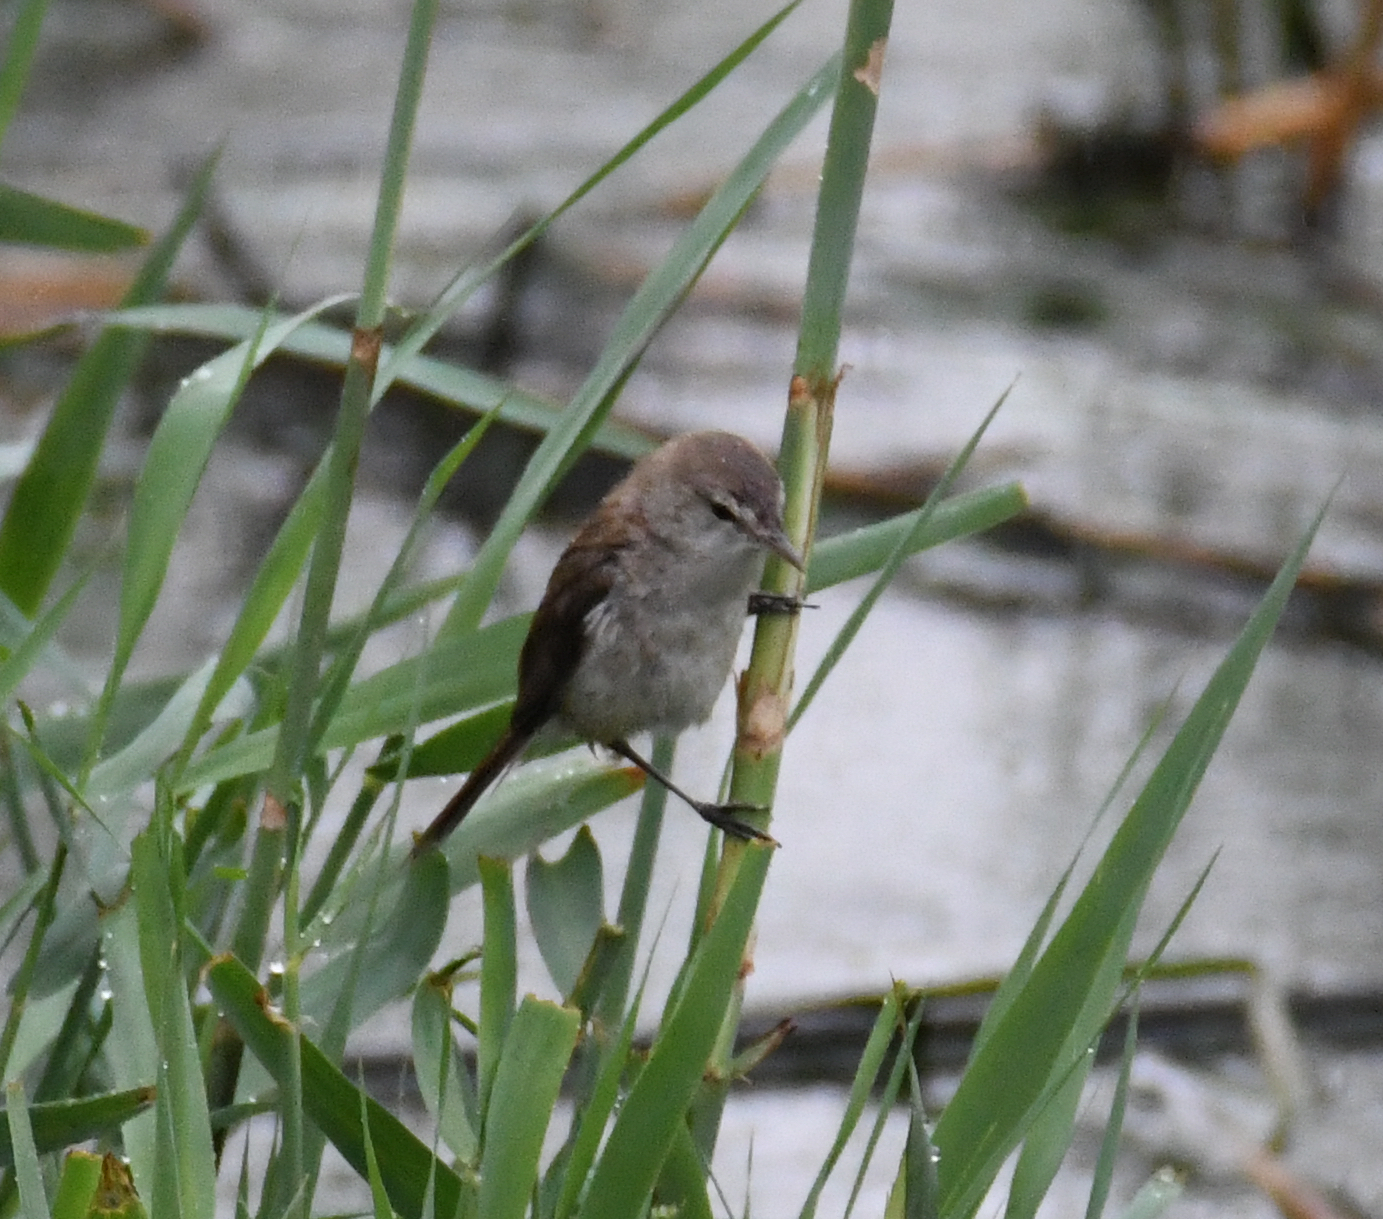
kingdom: Animalia
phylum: Chordata
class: Aves
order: Passeriformes
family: Acrocephalidae
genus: Acrocephalus
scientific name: Acrocephalus gracilirostris
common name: Lesser swamp warbler
